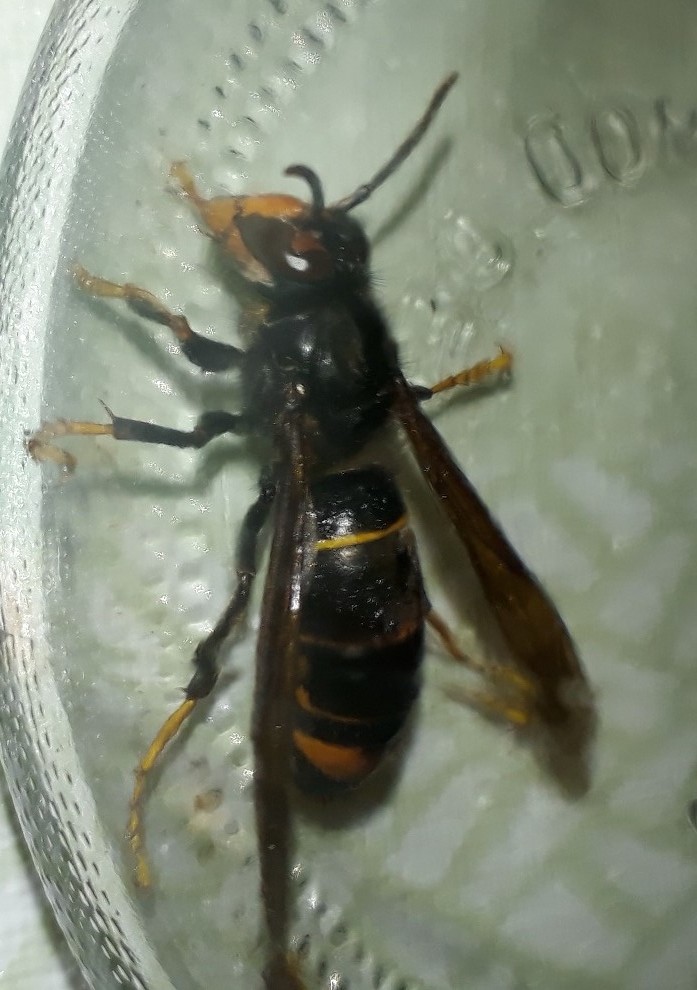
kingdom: Animalia
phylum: Arthropoda
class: Insecta
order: Hymenoptera
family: Vespidae
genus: Vespa
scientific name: Vespa velutina
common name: Asian hornet
